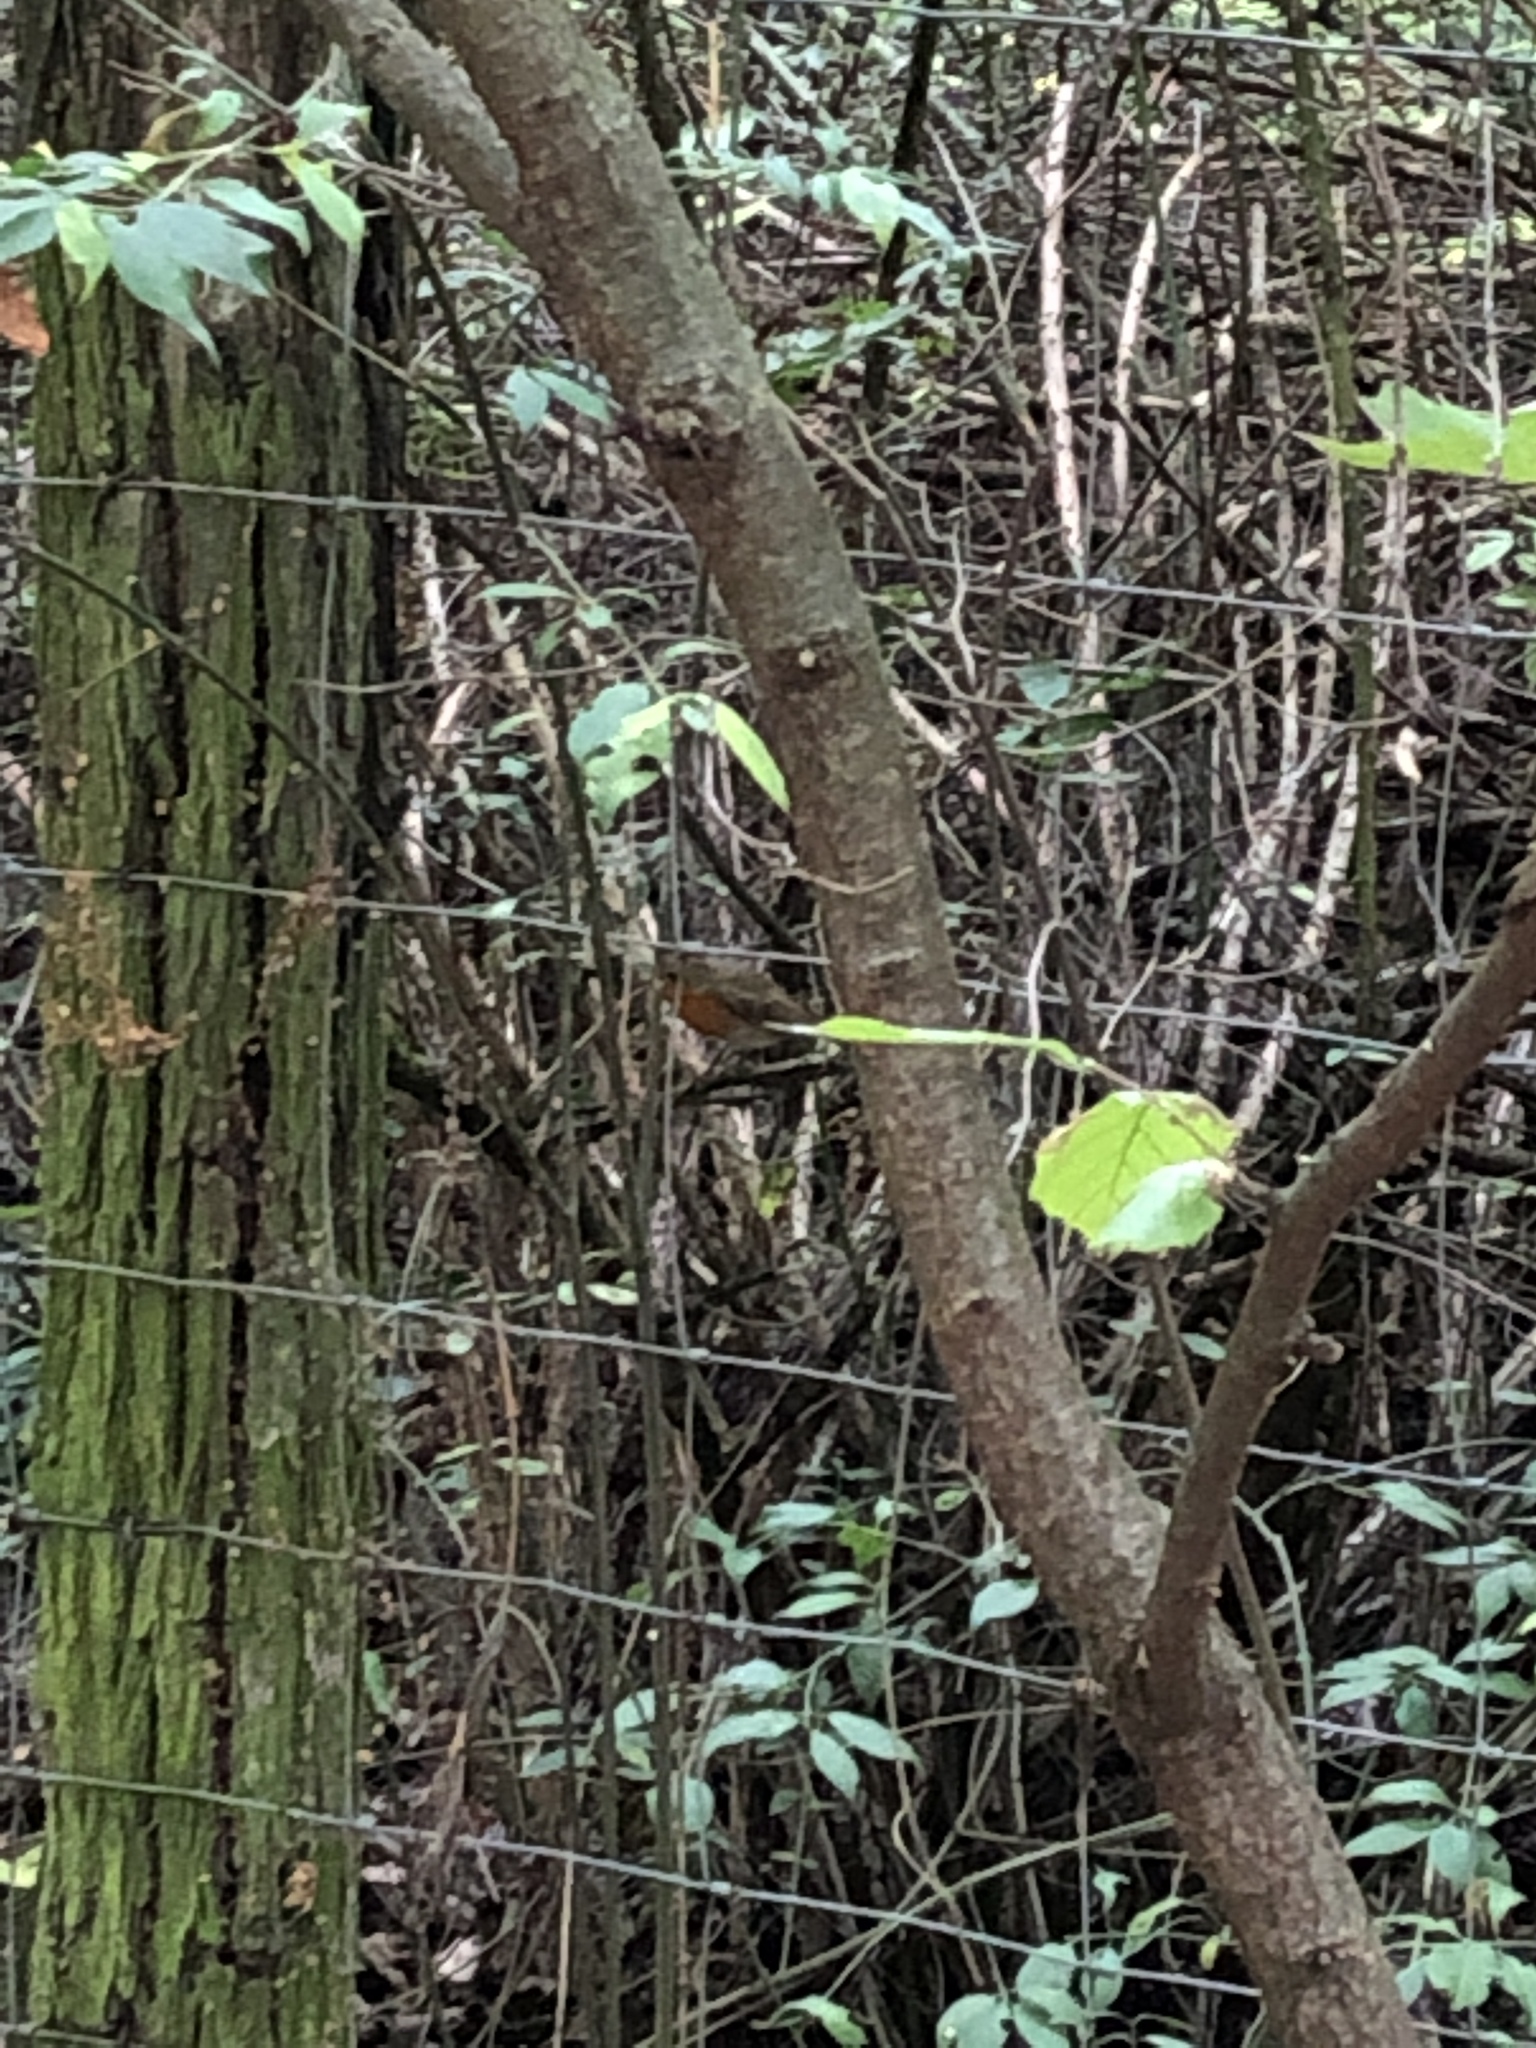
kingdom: Animalia
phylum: Chordata
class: Aves
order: Passeriformes
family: Muscicapidae
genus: Erithacus
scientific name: Erithacus rubecula
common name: European robin
